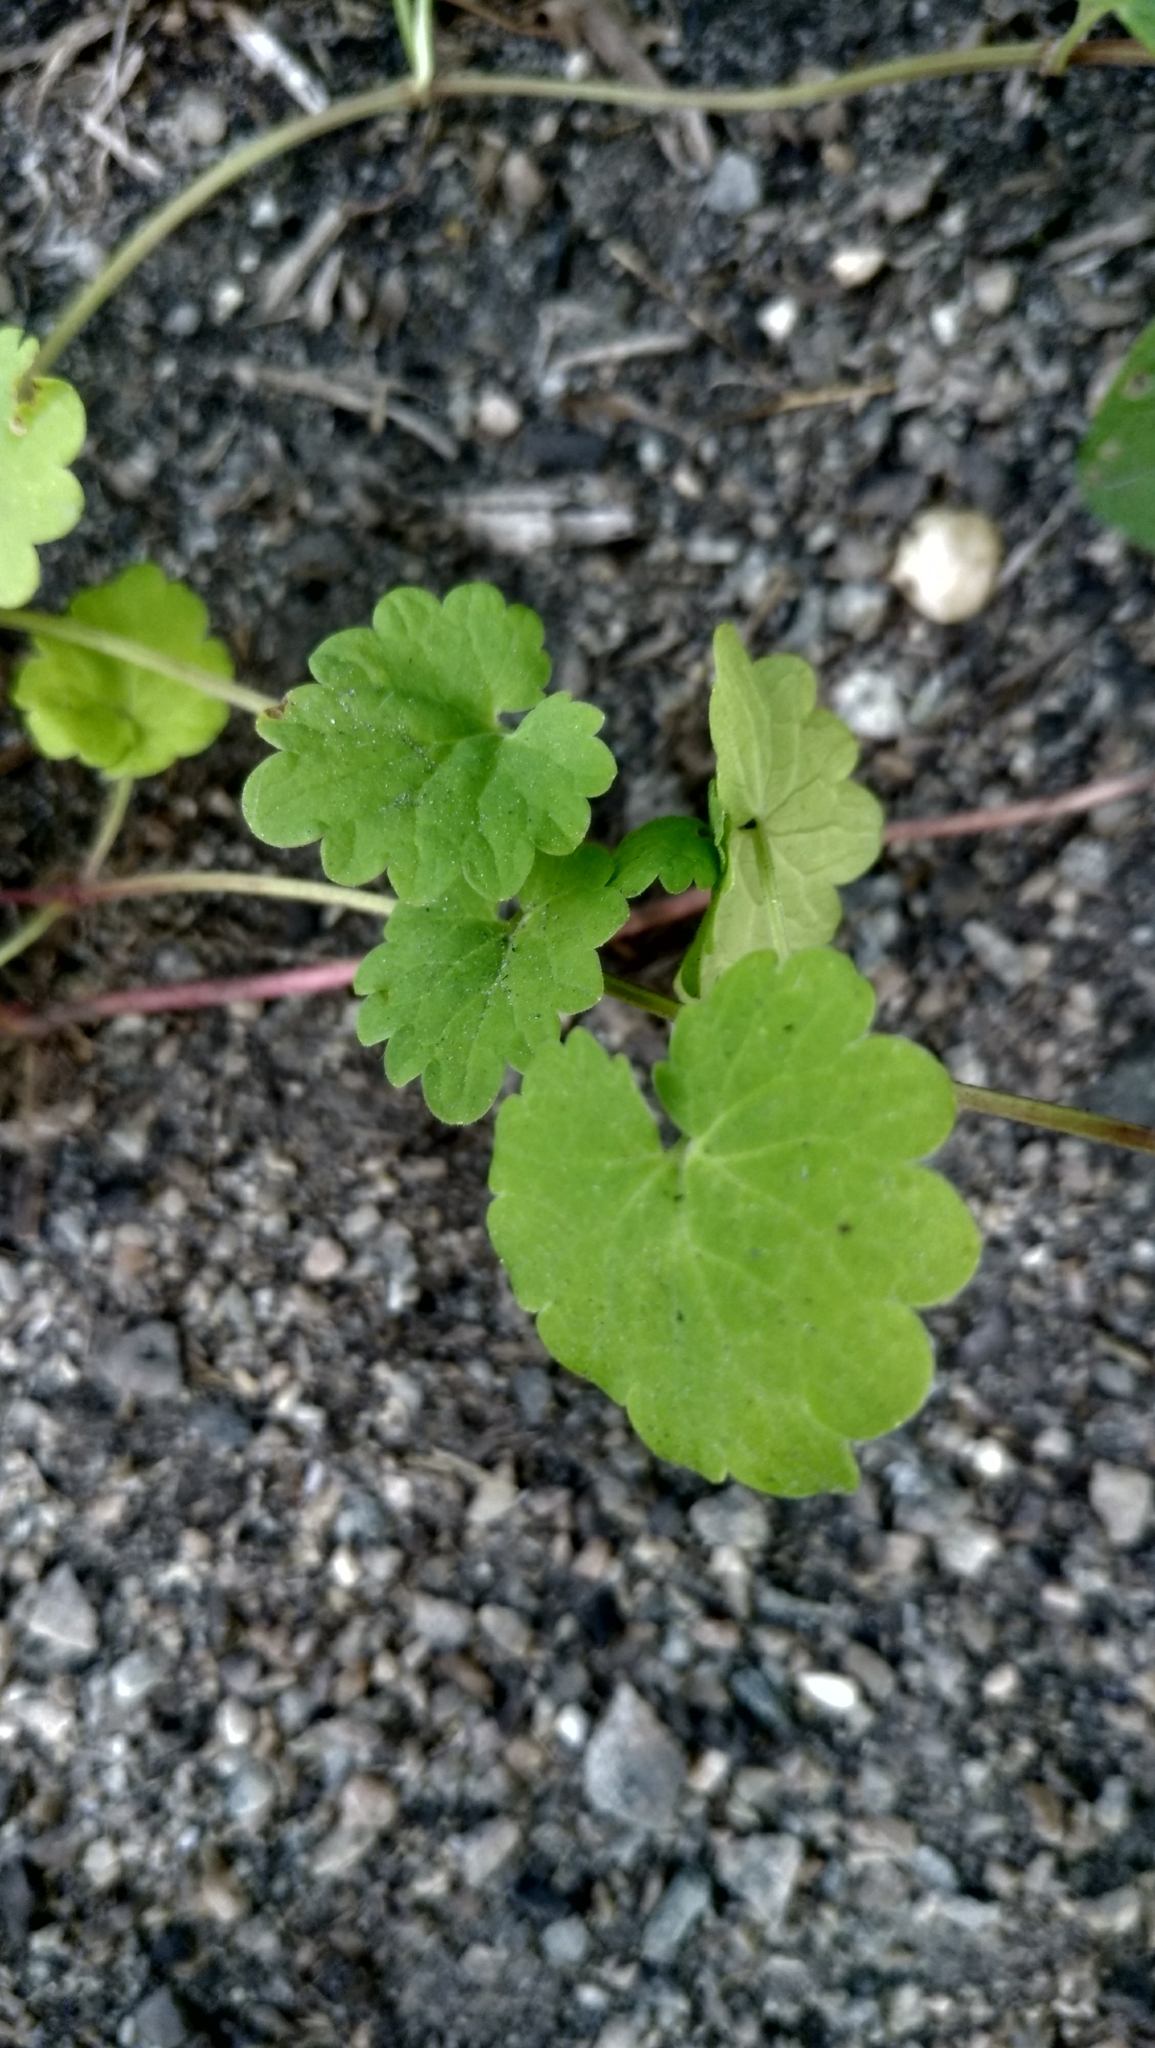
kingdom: Plantae
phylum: Tracheophyta
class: Magnoliopsida
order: Lamiales
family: Lamiaceae
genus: Glechoma
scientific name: Glechoma hederacea
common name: Ground ivy
